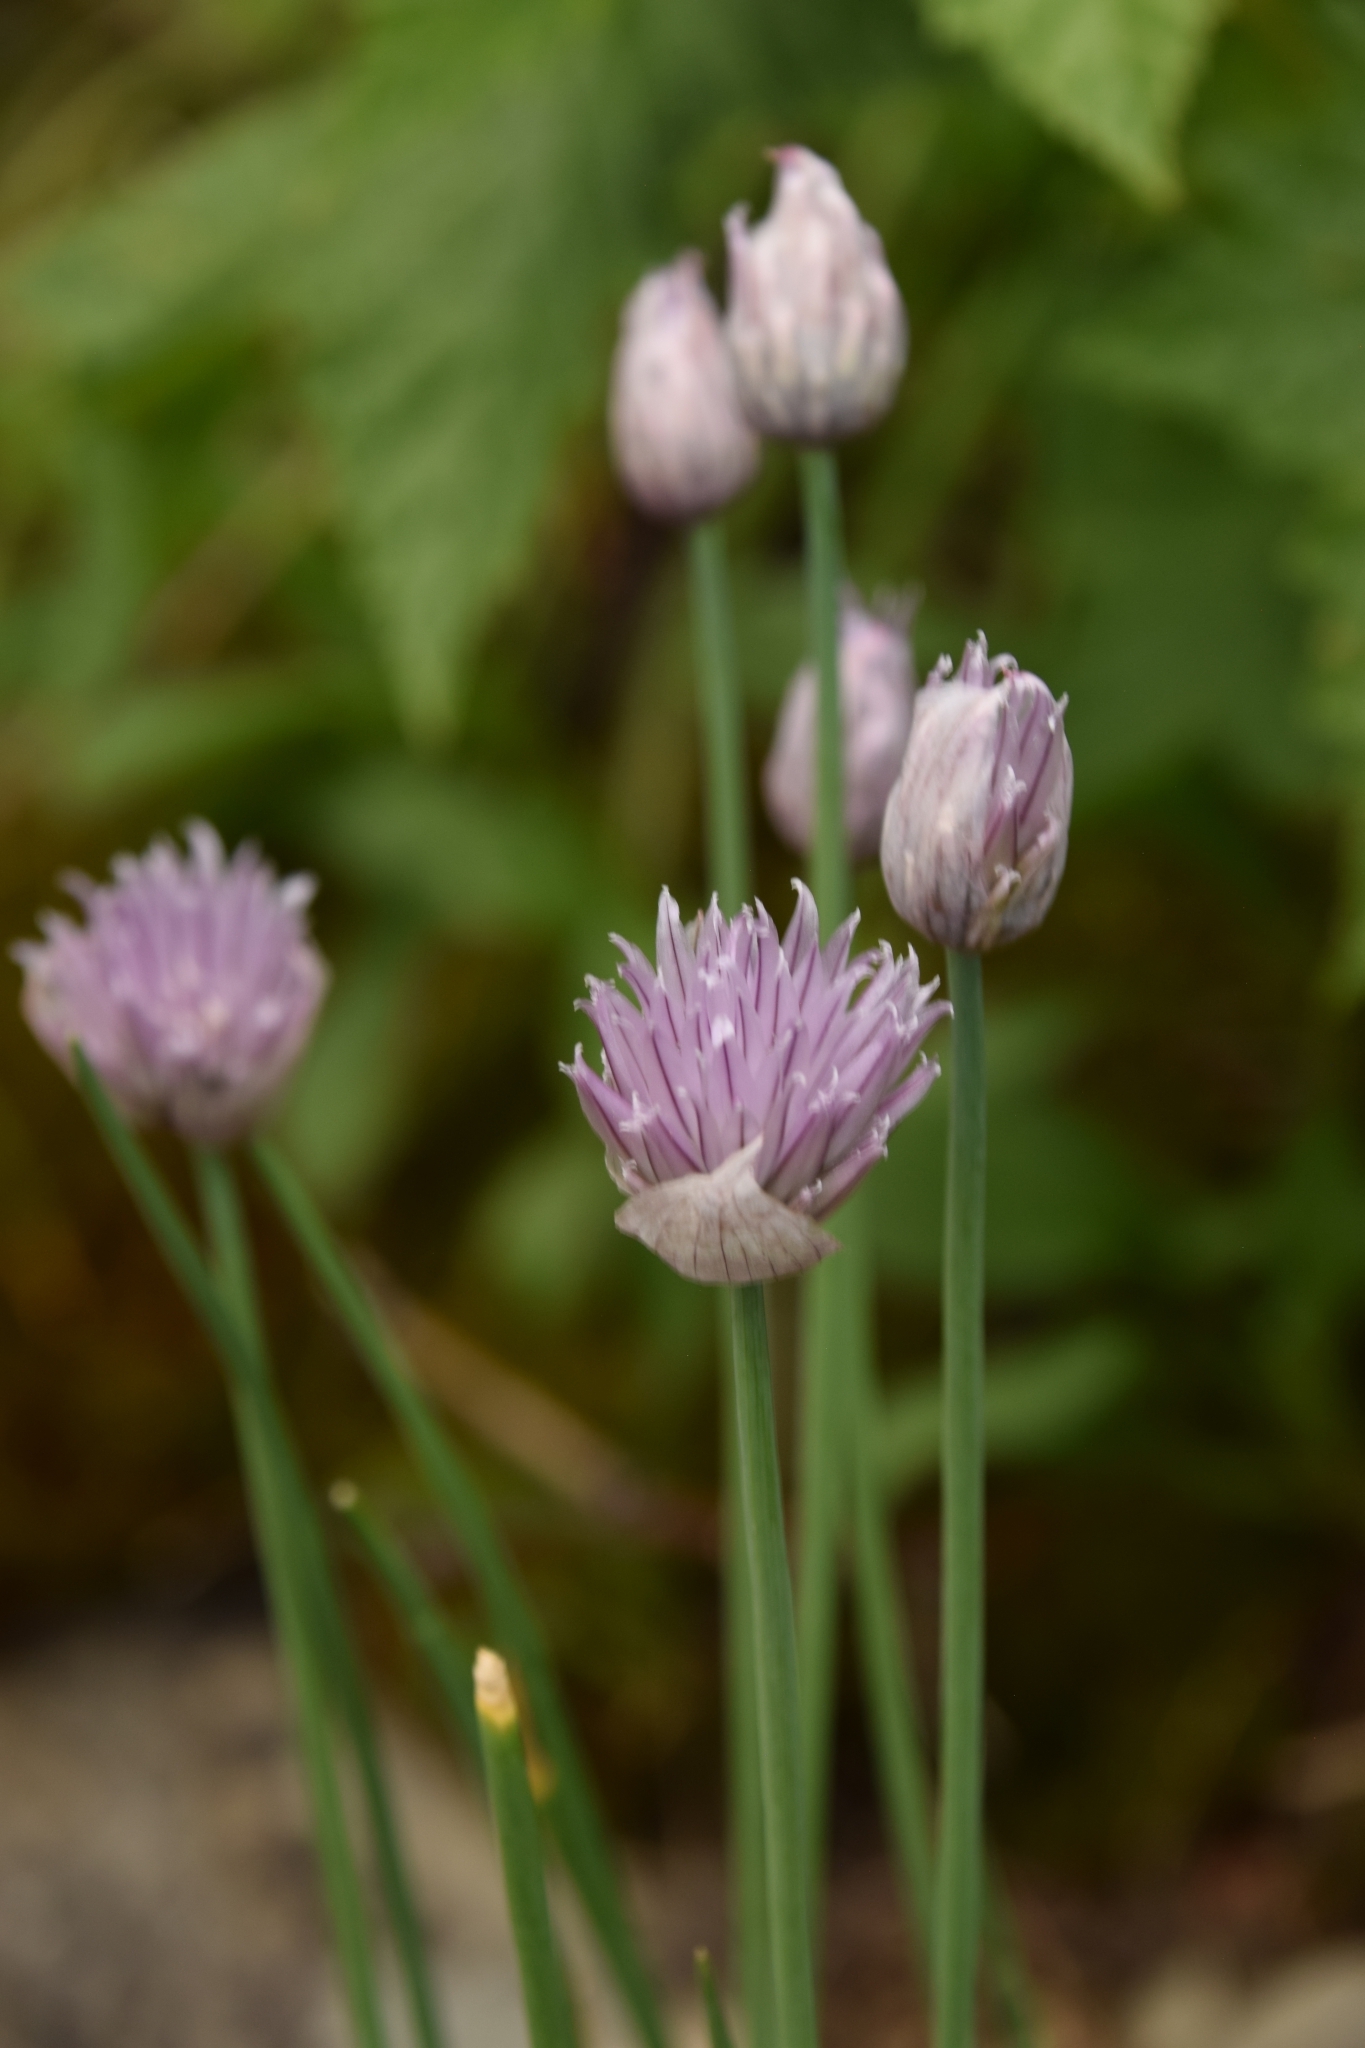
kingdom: Plantae
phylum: Tracheophyta
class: Liliopsida
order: Asparagales
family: Amaryllidaceae
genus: Allium
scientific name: Allium schoenoprasum
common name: Chives
